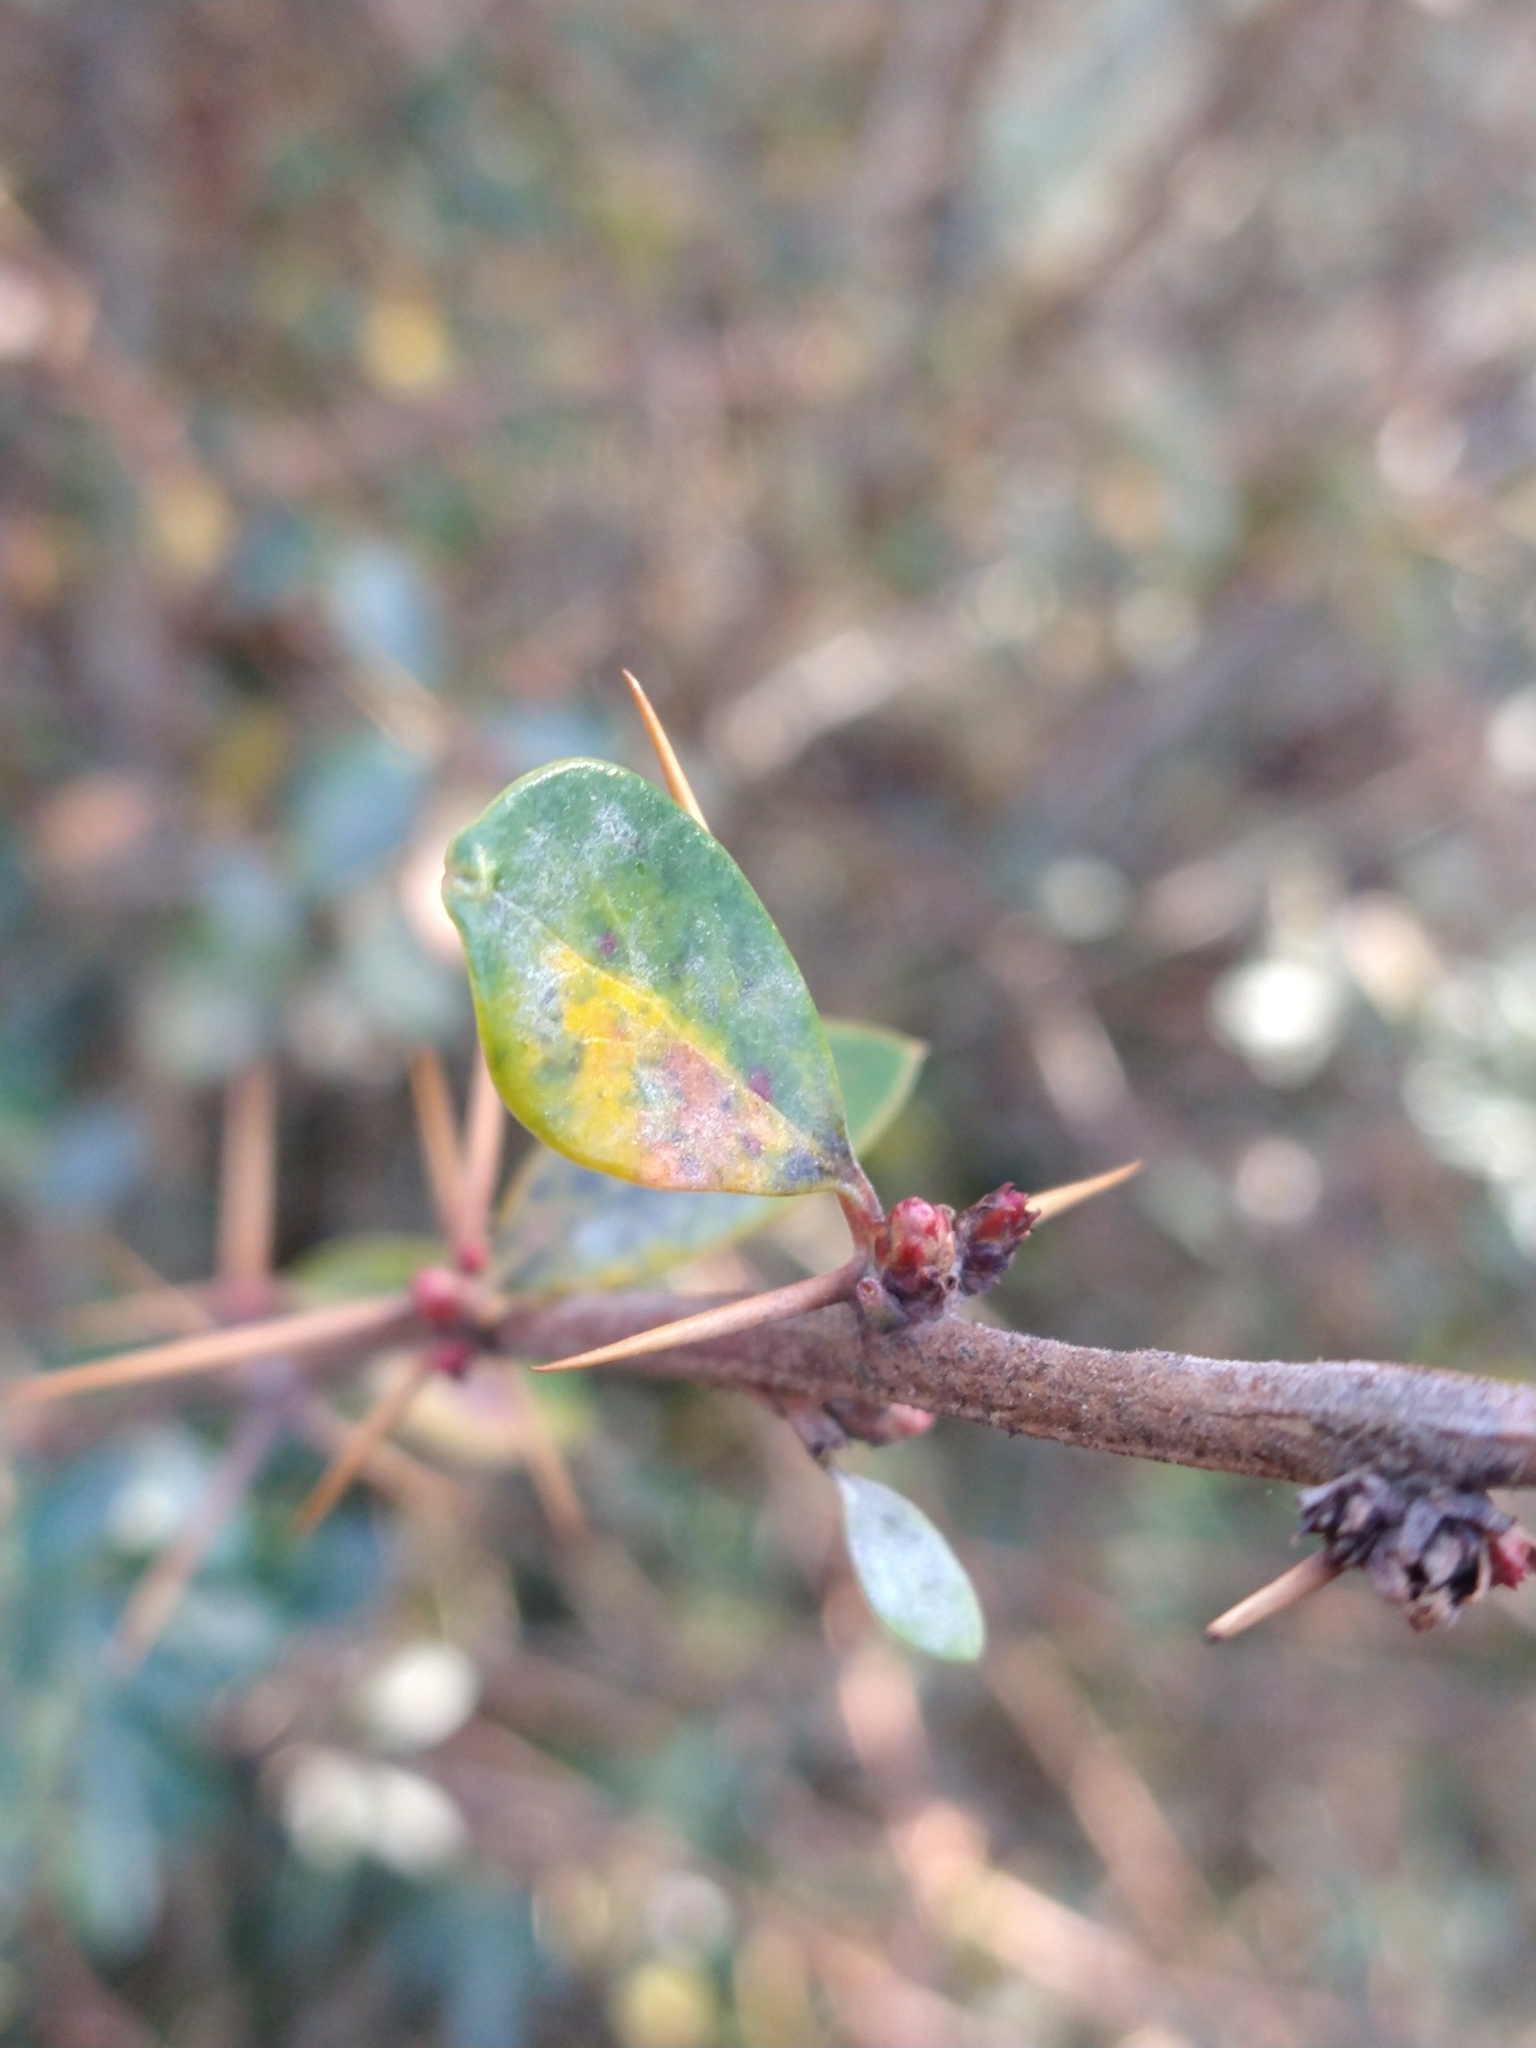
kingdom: Plantae
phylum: Tracheophyta
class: Magnoliopsida
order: Ranunculales
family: Berberidaceae
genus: Berberis
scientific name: Berberis microphylla
